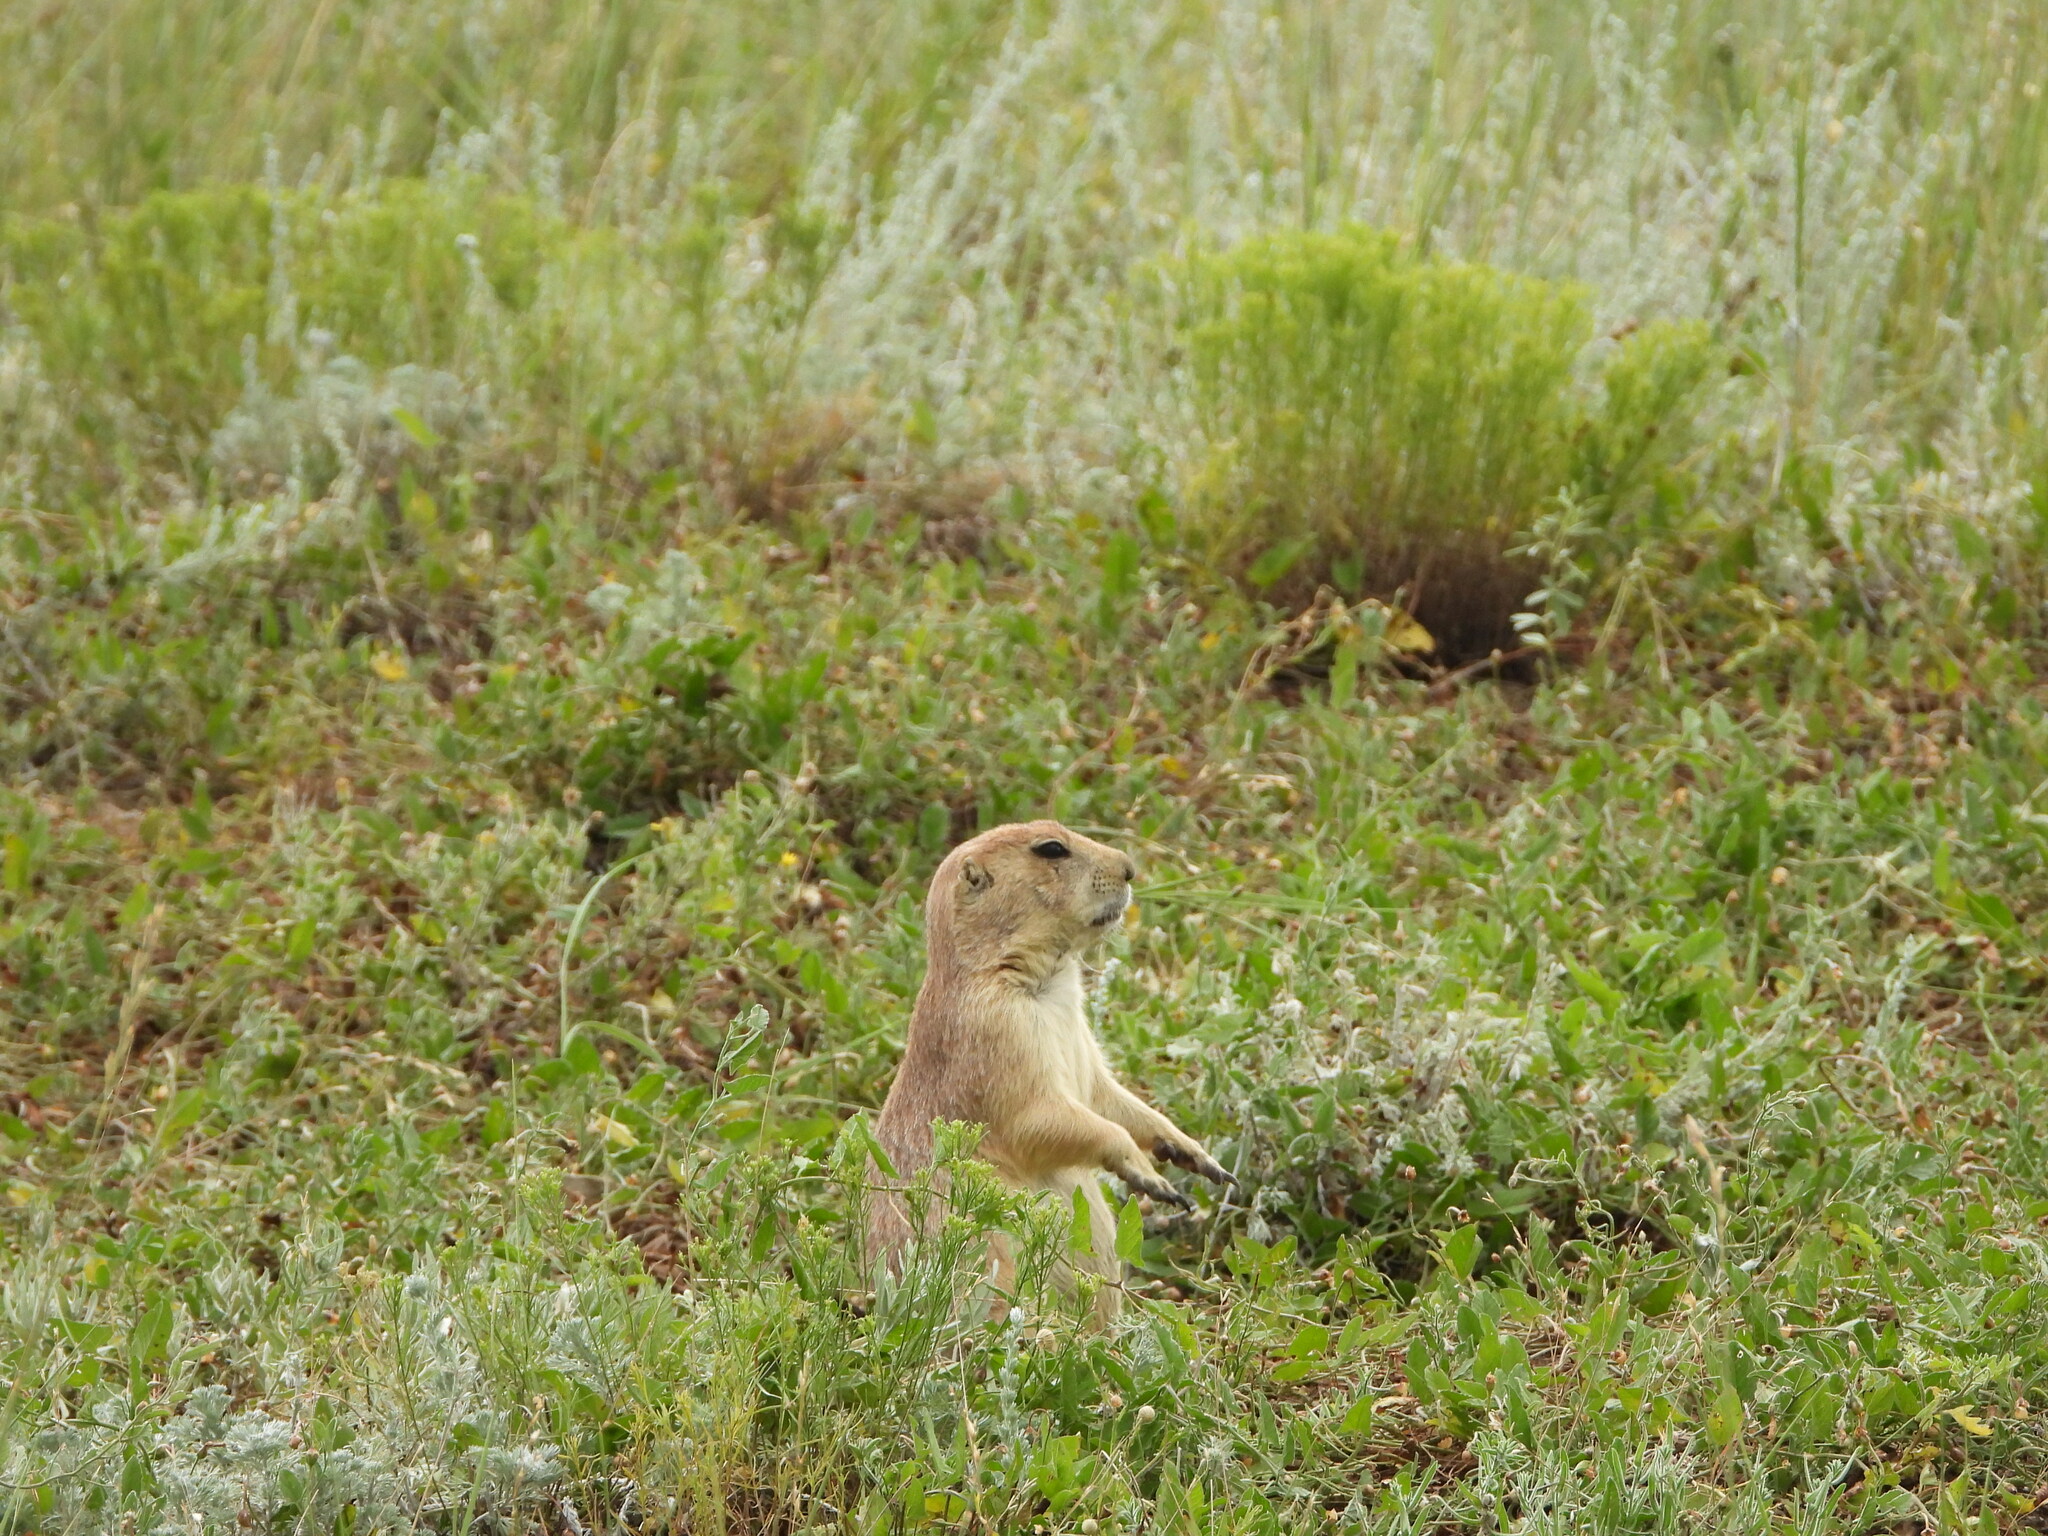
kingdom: Animalia
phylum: Chordata
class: Mammalia
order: Rodentia
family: Sciuridae
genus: Cynomys
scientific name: Cynomys ludovicianus
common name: Black-tailed prairie dog
